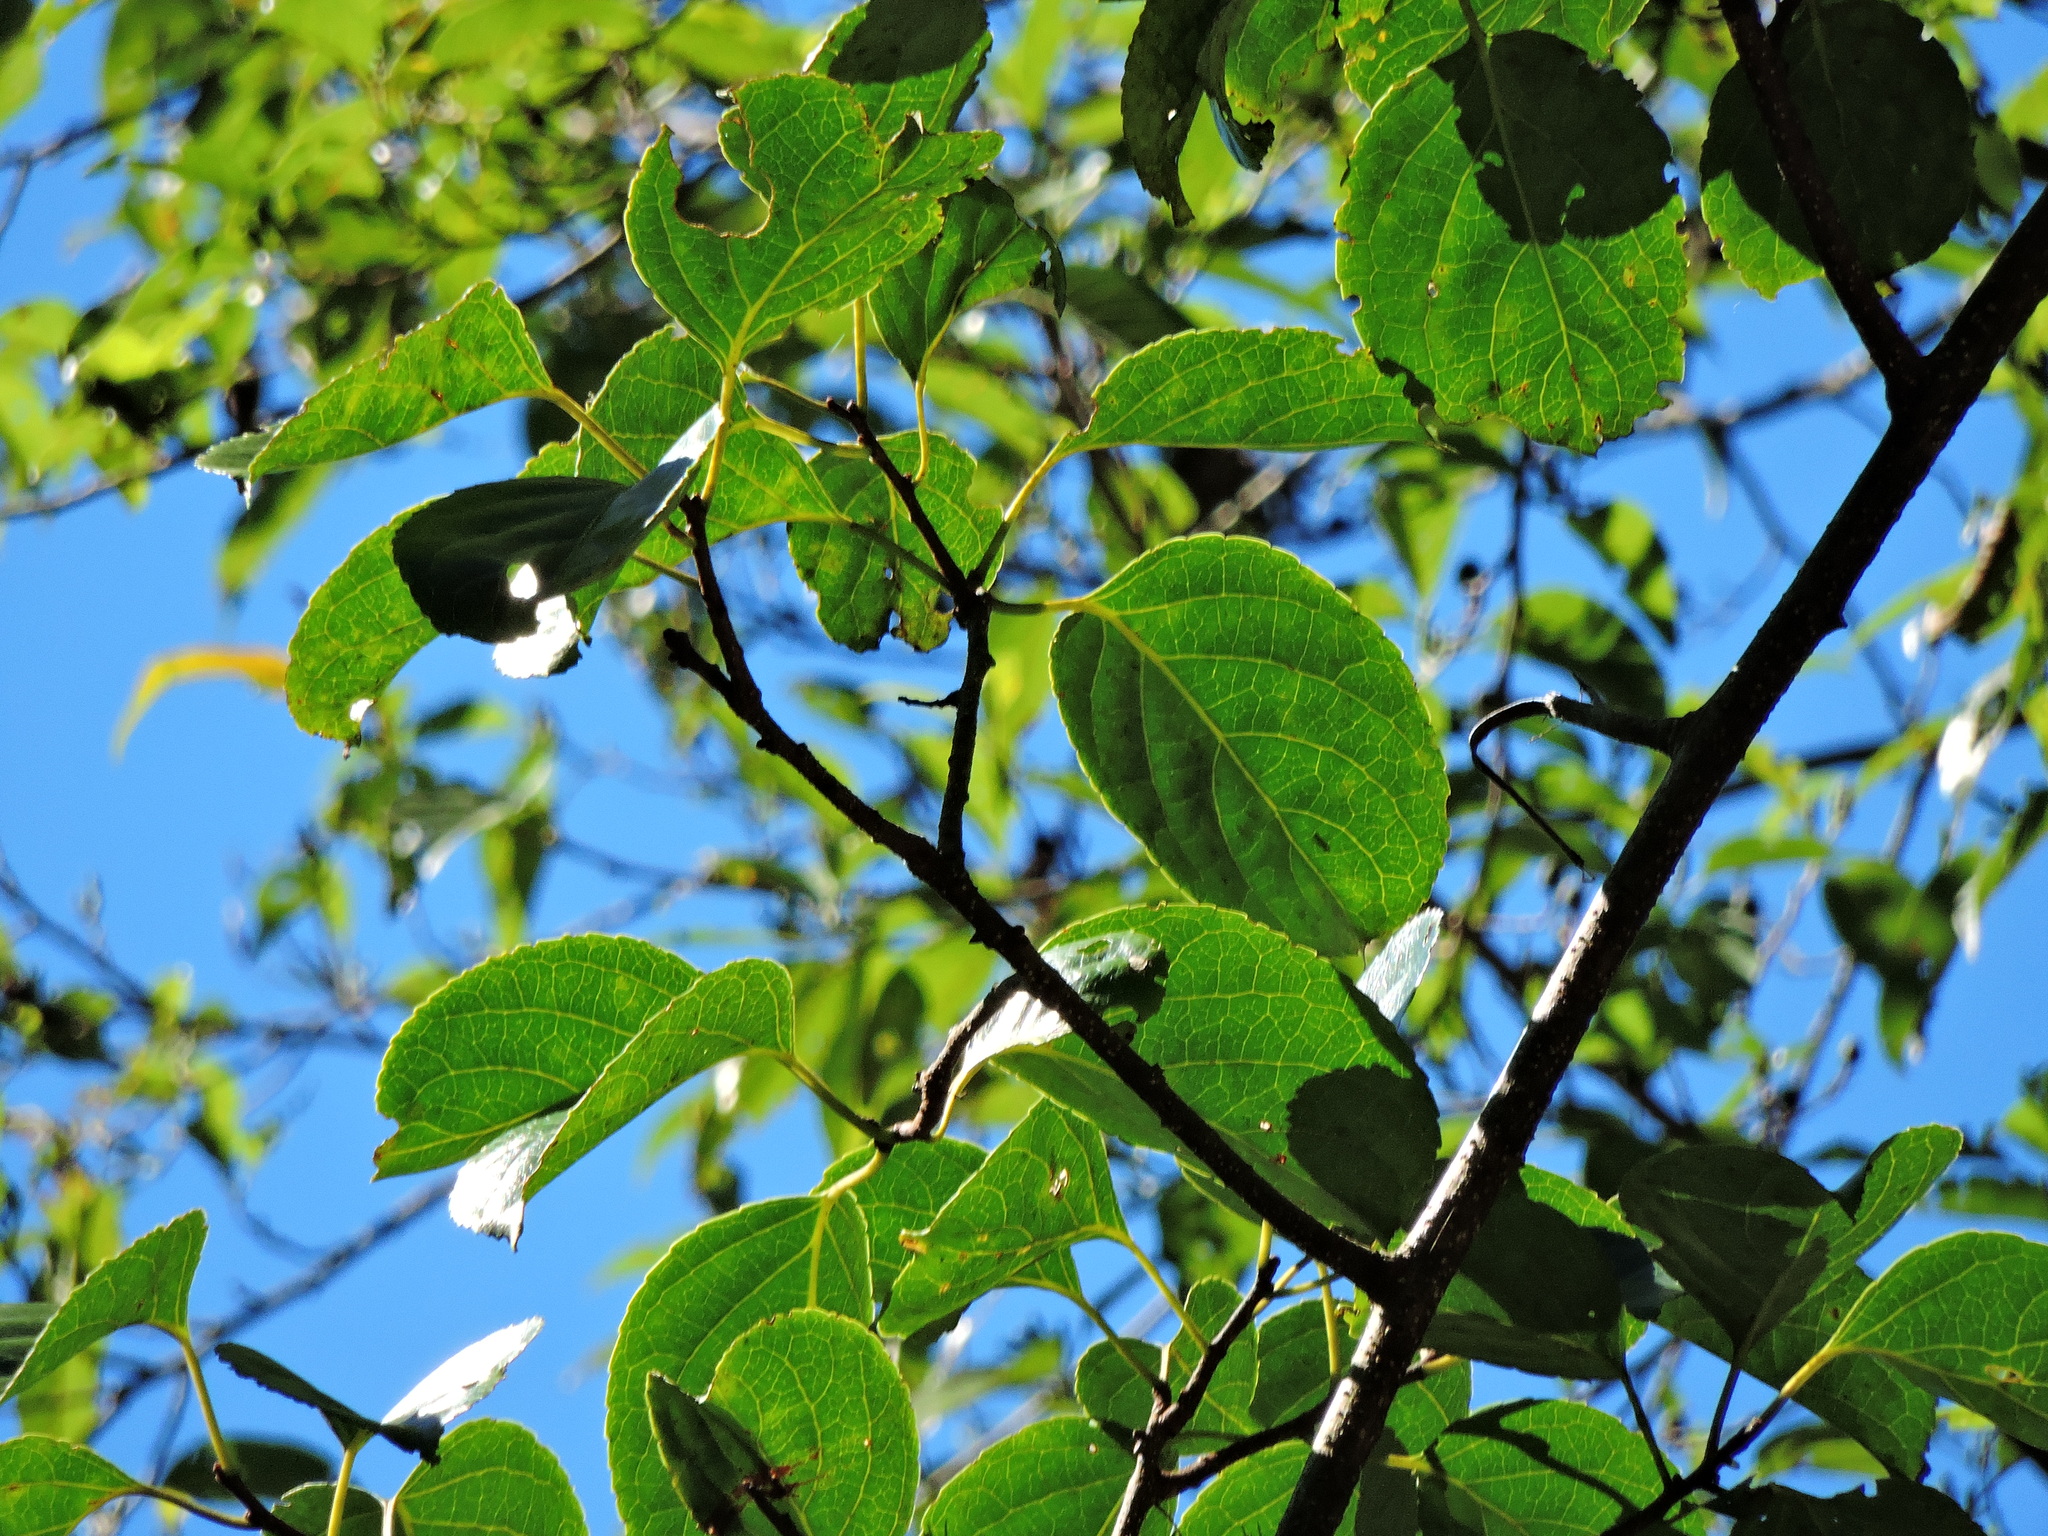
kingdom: Plantae
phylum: Tracheophyta
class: Magnoliopsida
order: Celastrales
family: Celastraceae
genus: Celastrus
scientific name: Celastrus kusanoi
